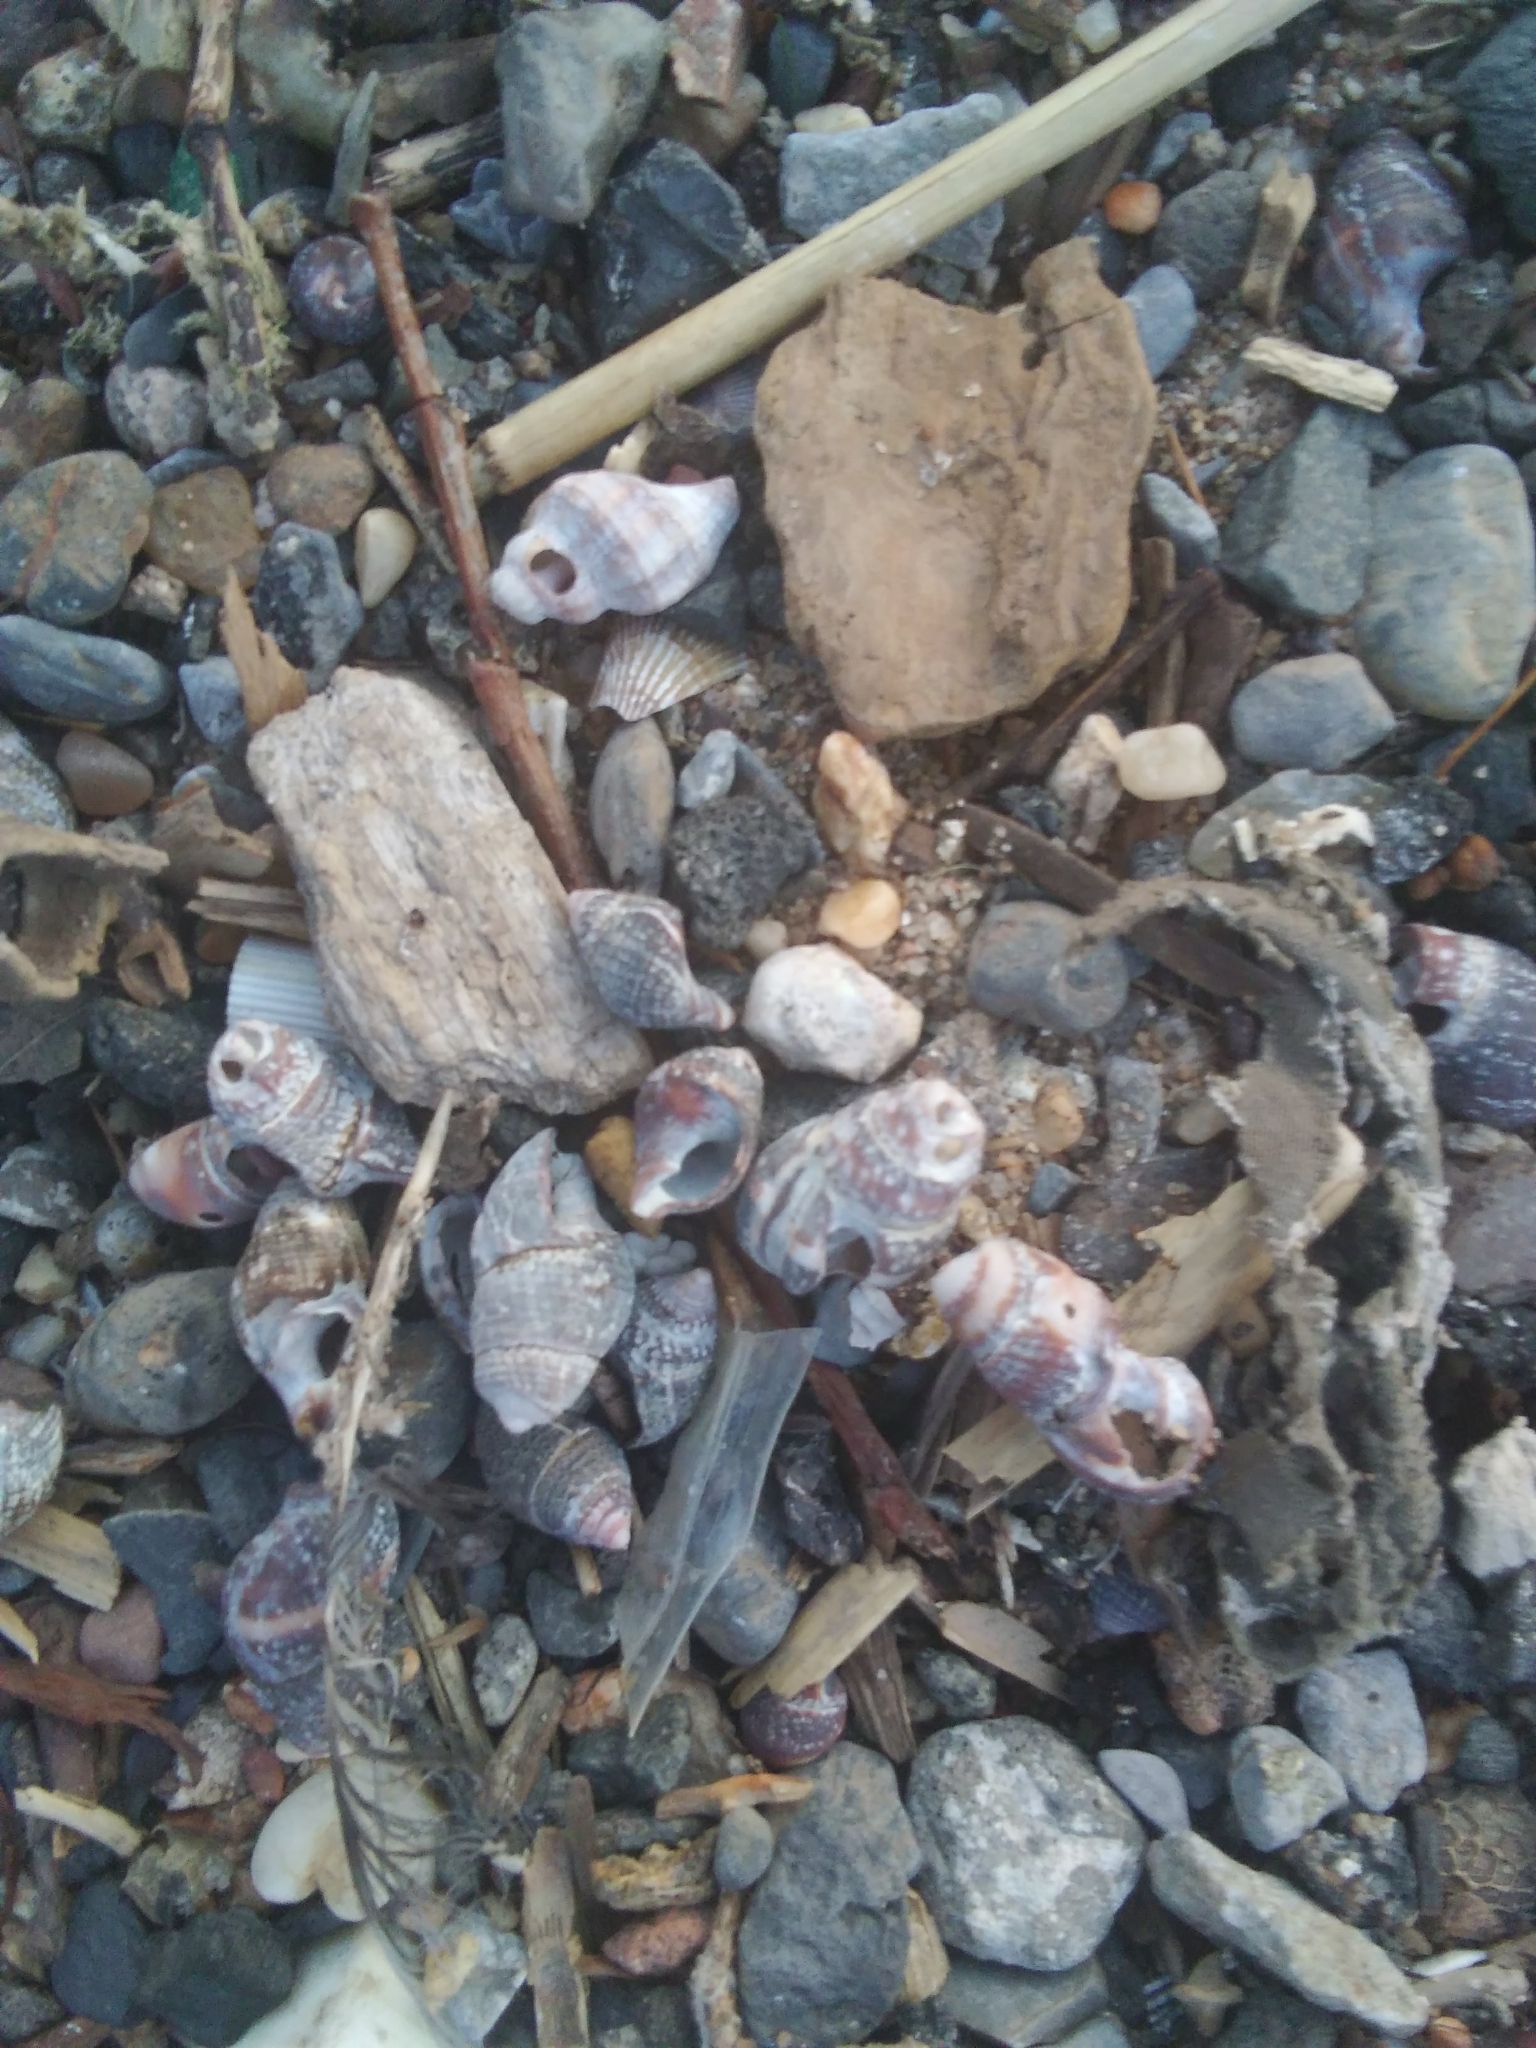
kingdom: Animalia
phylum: Mollusca
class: Gastropoda
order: Neogastropoda
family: Muricidae
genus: Urosalpinx
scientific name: Urosalpinx cinerea
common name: American sting winkle
